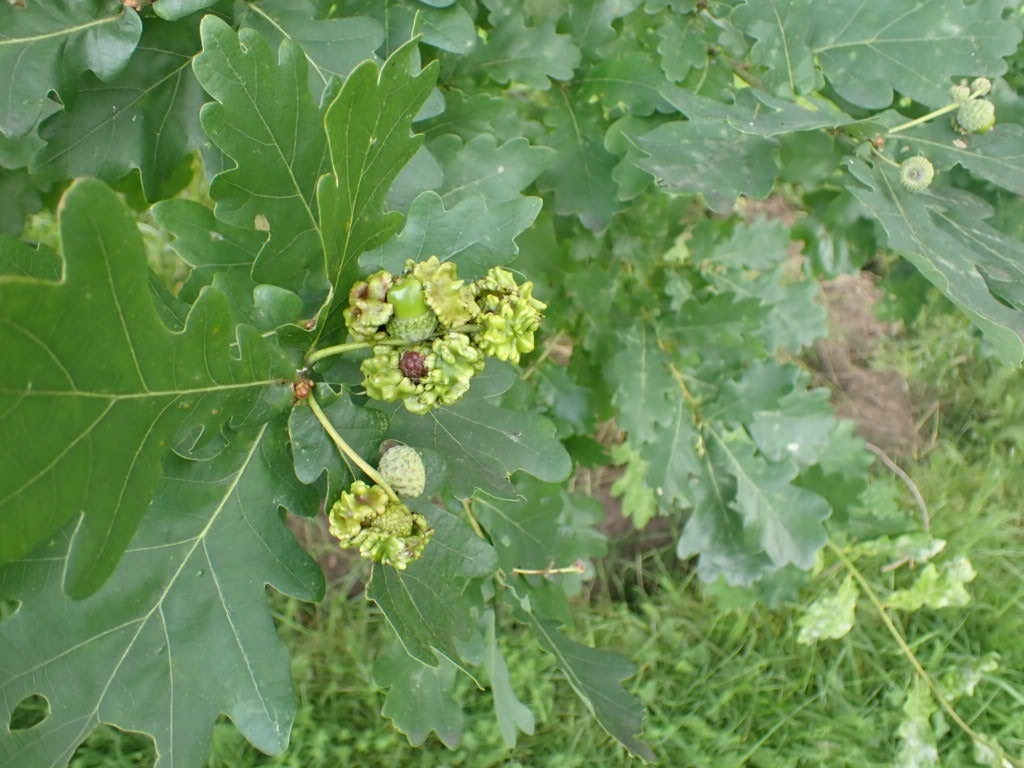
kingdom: Animalia
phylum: Arthropoda
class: Insecta
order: Hymenoptera
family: Cynipidae
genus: Andricus
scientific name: Andricus quercuscalicis
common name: Knopper gall
